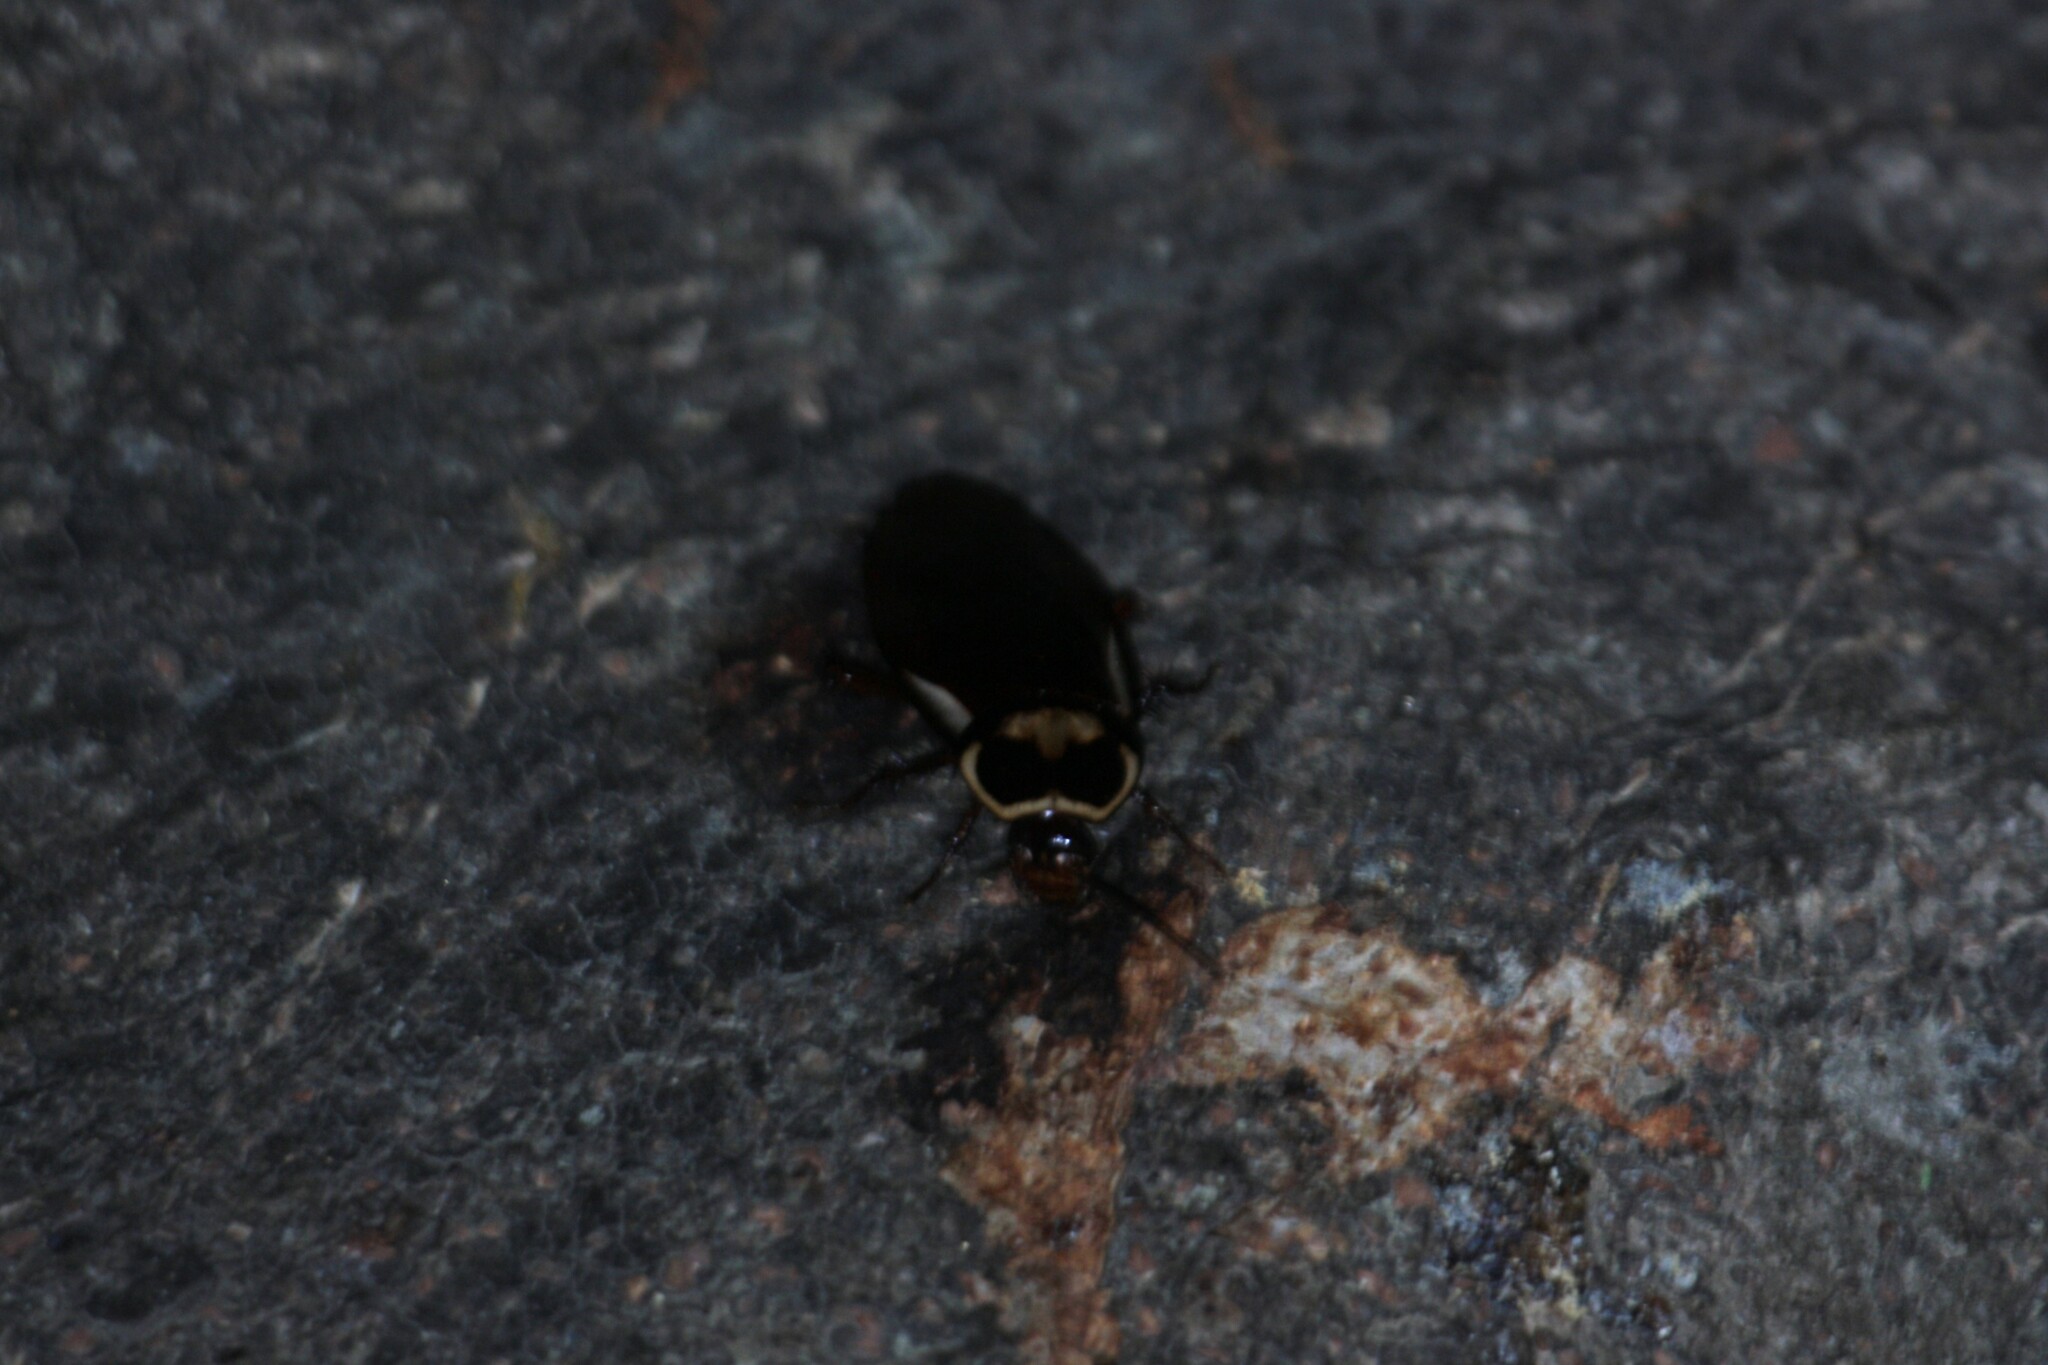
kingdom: Animalia
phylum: Arthropoda
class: Insecta
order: Blattodea
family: Blattidae
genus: Periplaneta
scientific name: Periplaneta australasiae
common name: Australian cockroach
